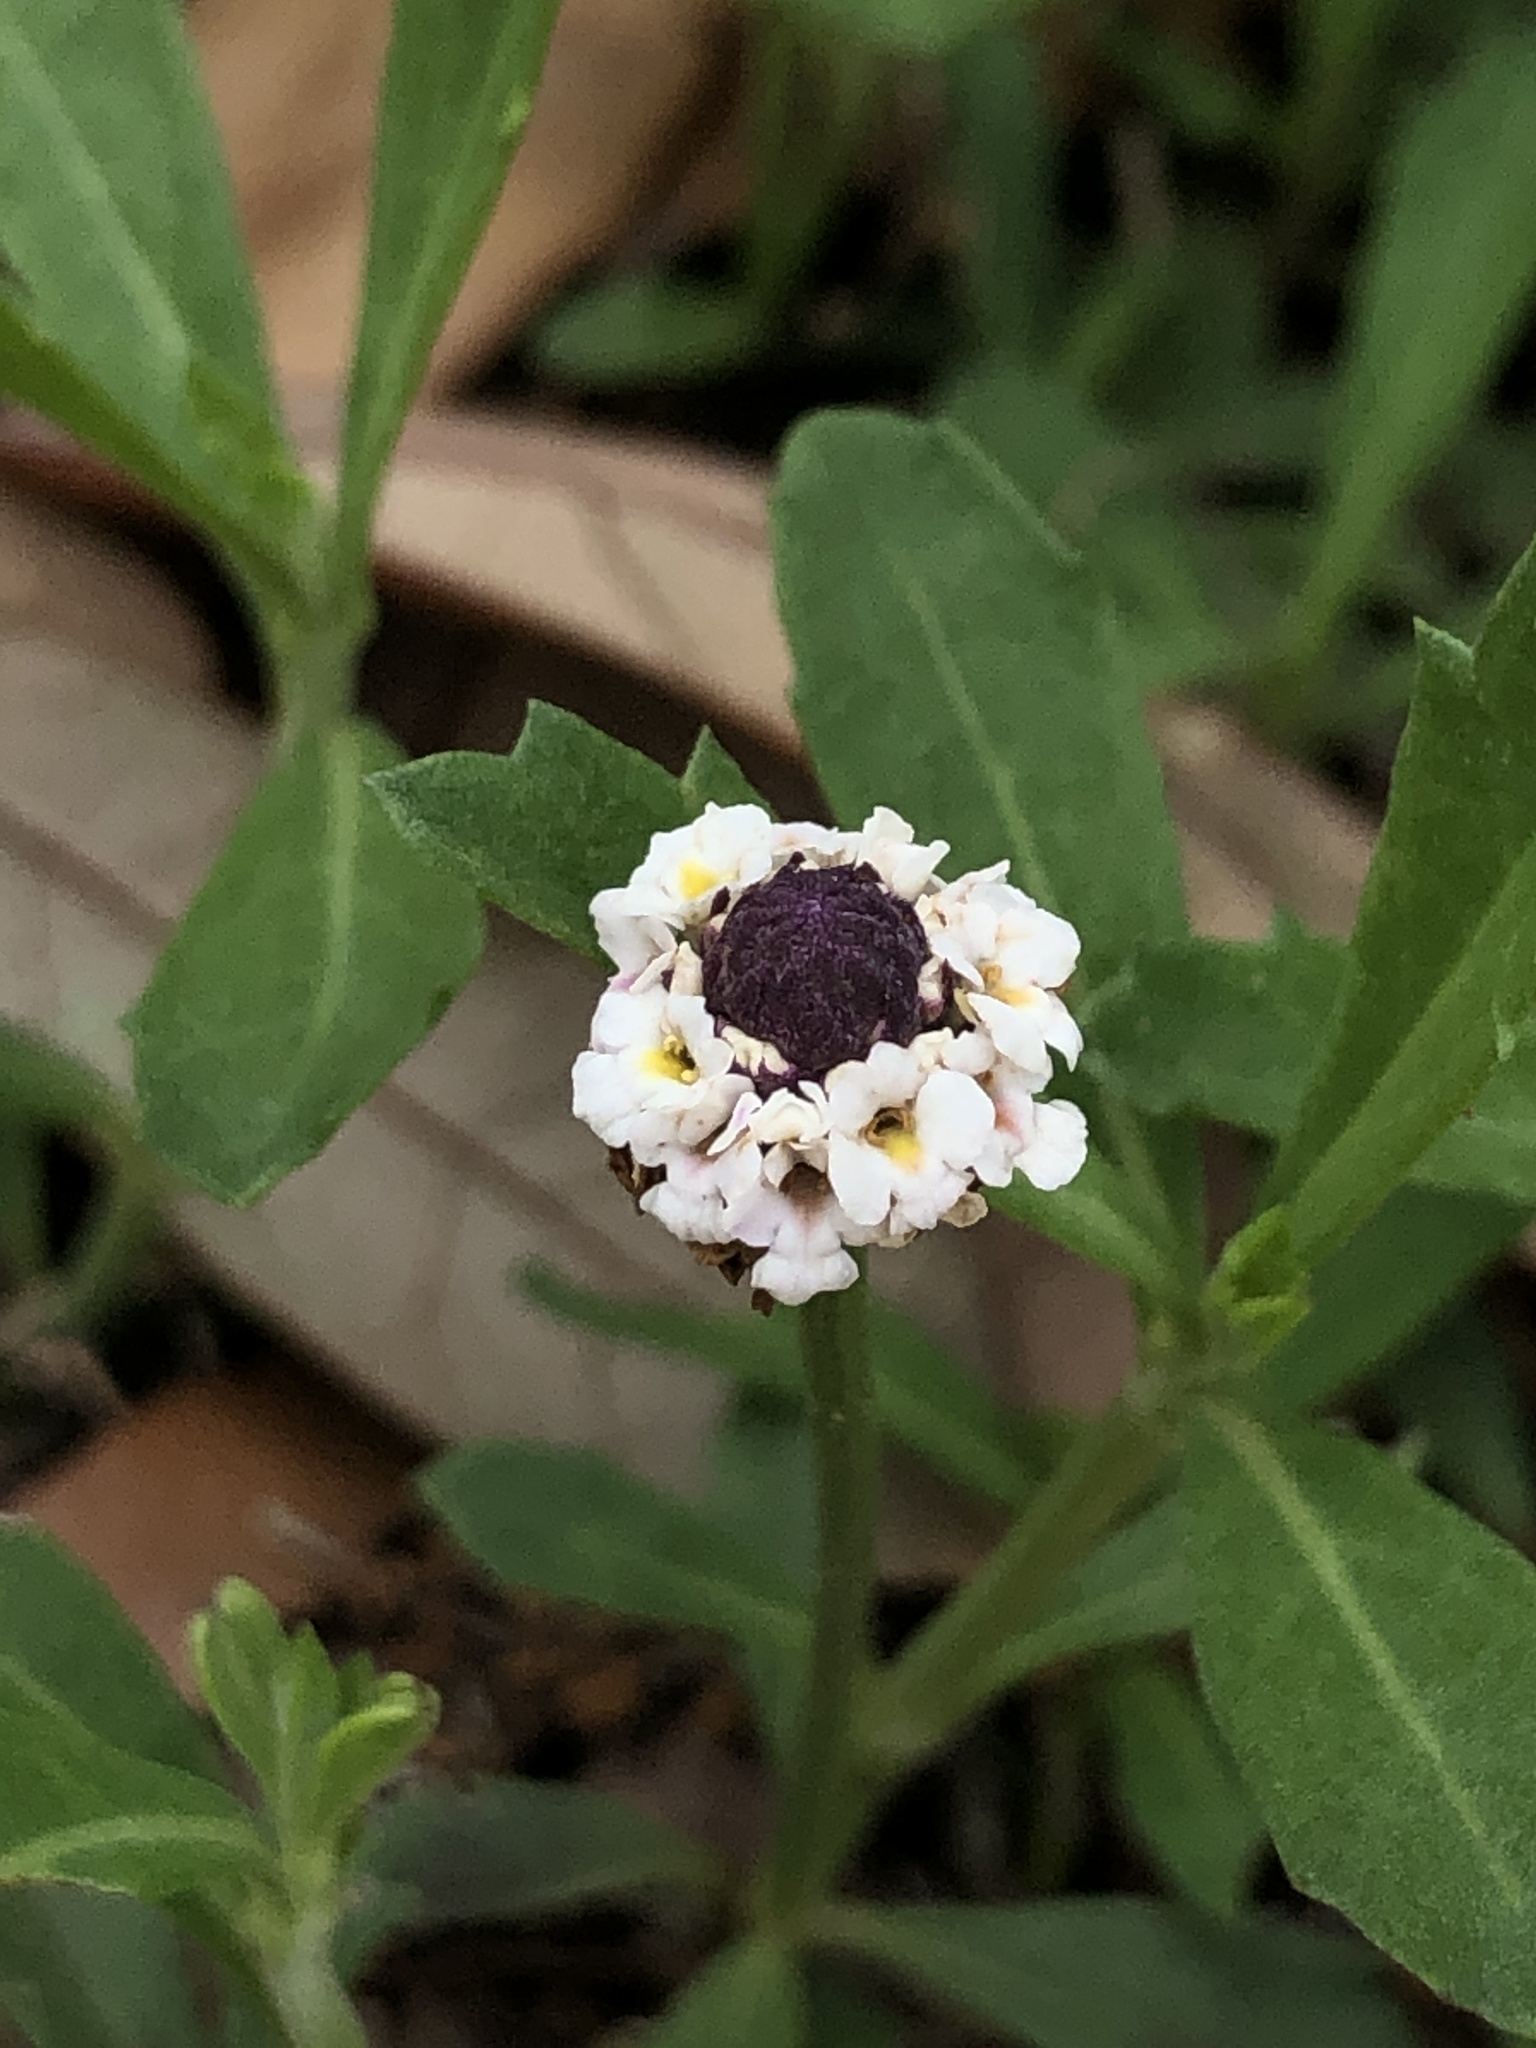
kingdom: Plantae
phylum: Tracheophyta
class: Magnoliopsida
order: Lamiales
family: Verbenaceae
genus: Phyla
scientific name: Phyla nodiflora
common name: Frogfruit
